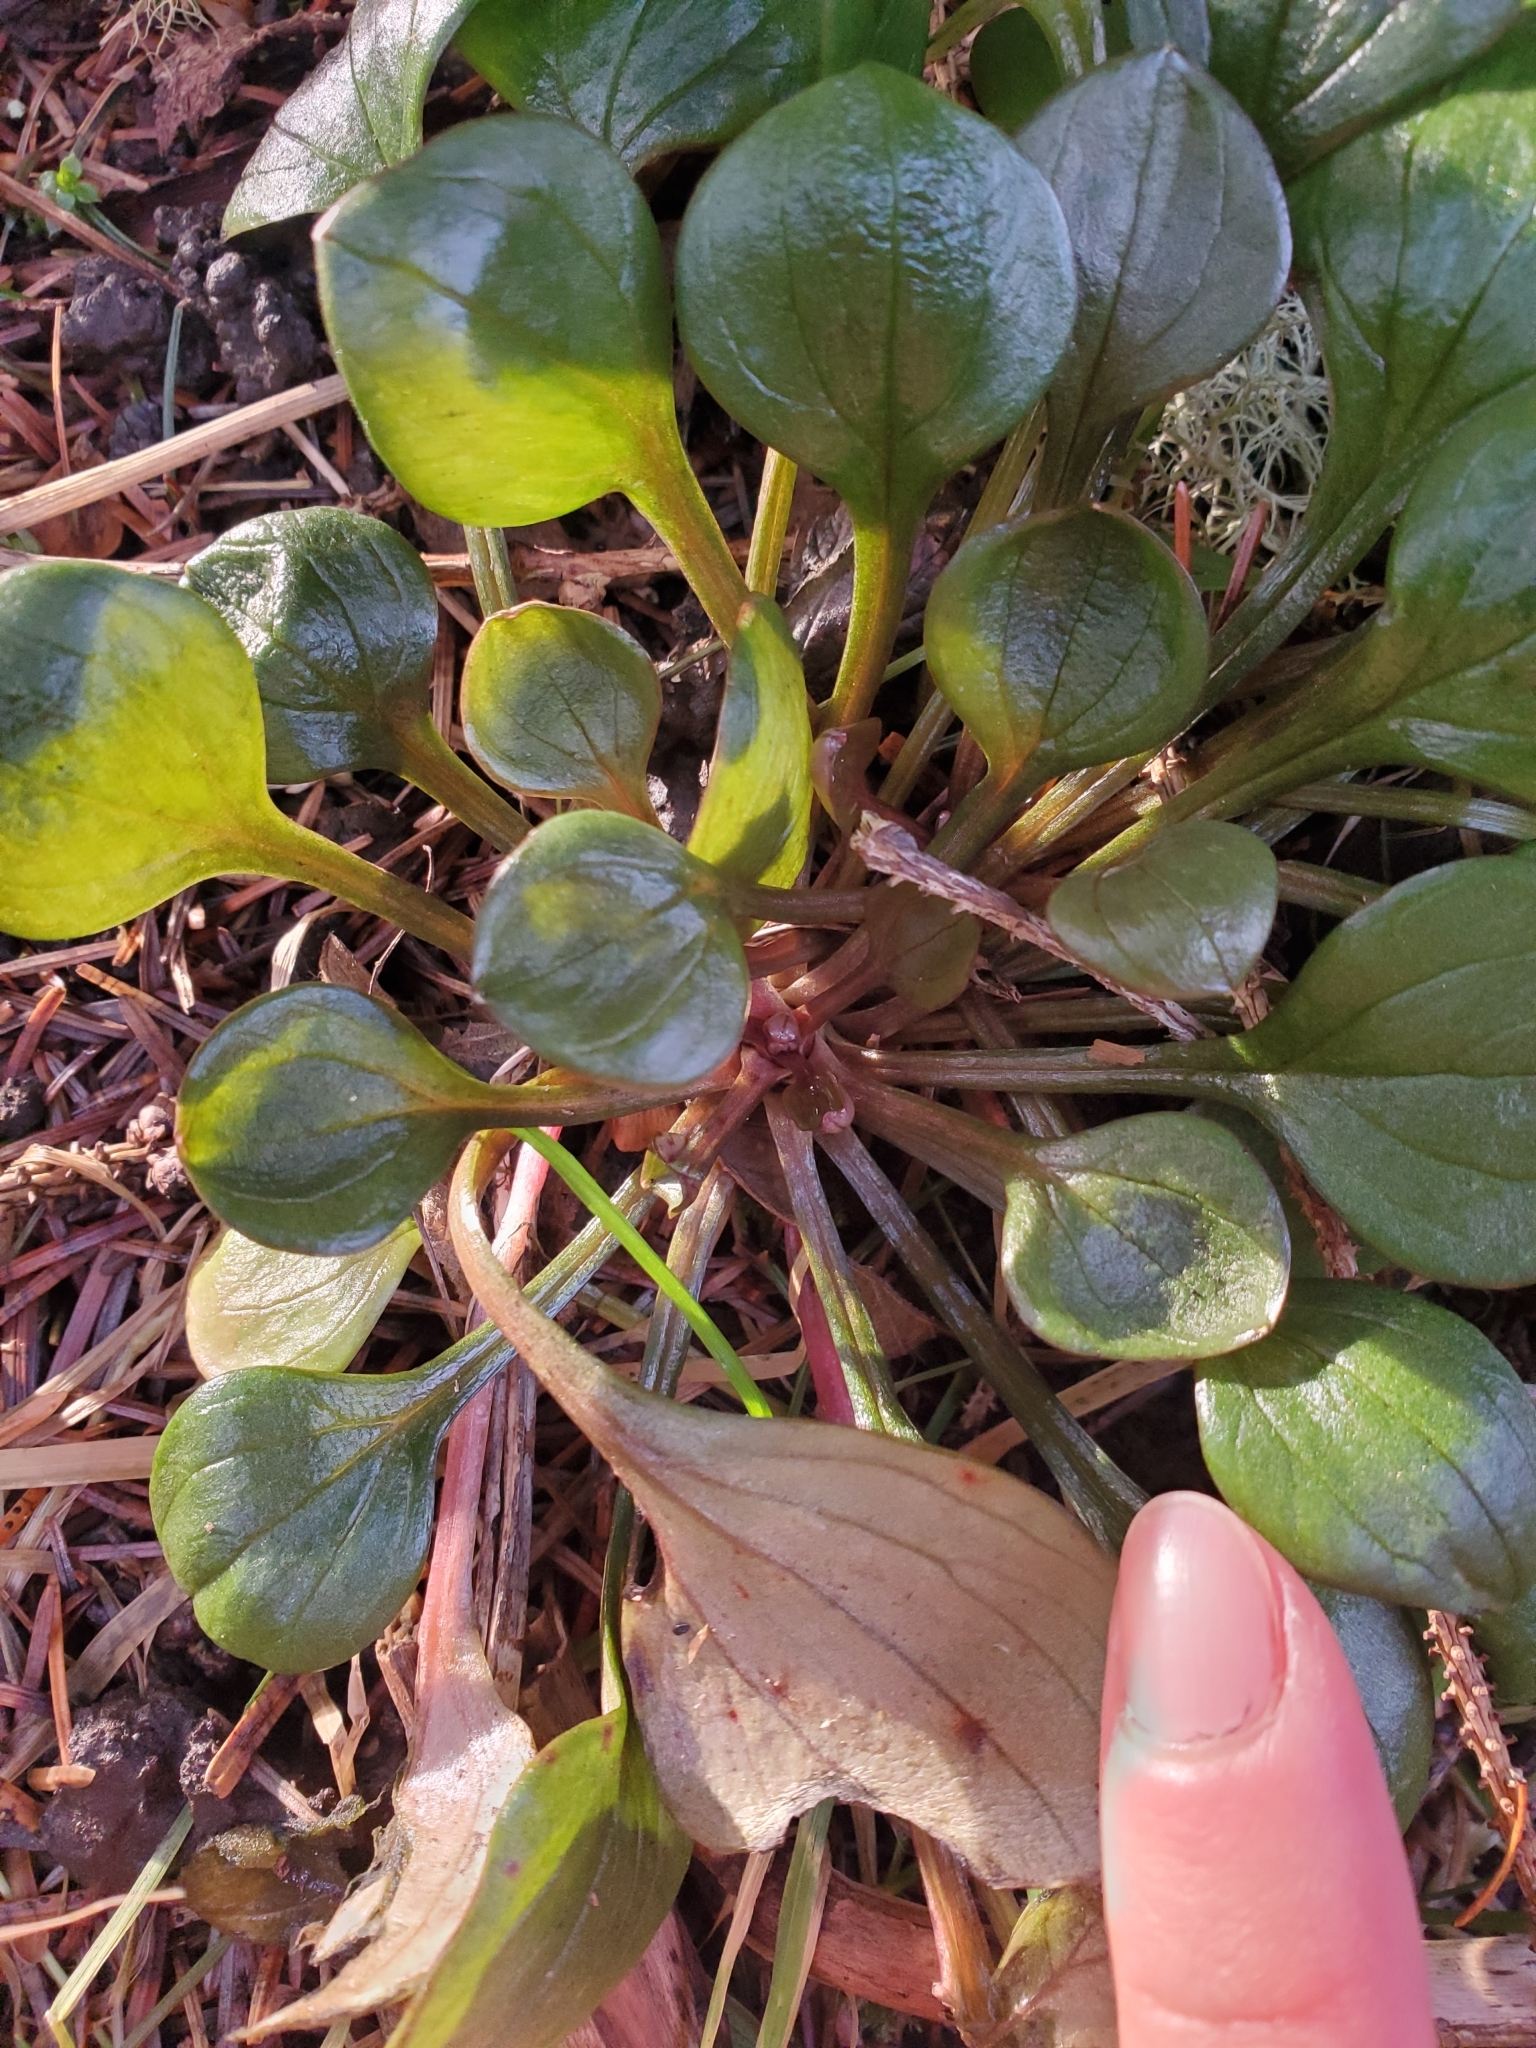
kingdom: Plantae
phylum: Tracheophyta
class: Magnoliopsida
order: Caryophyllales
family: Montiaceae
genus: Claytonia
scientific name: Claytonia sibirica
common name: Pink purslane
